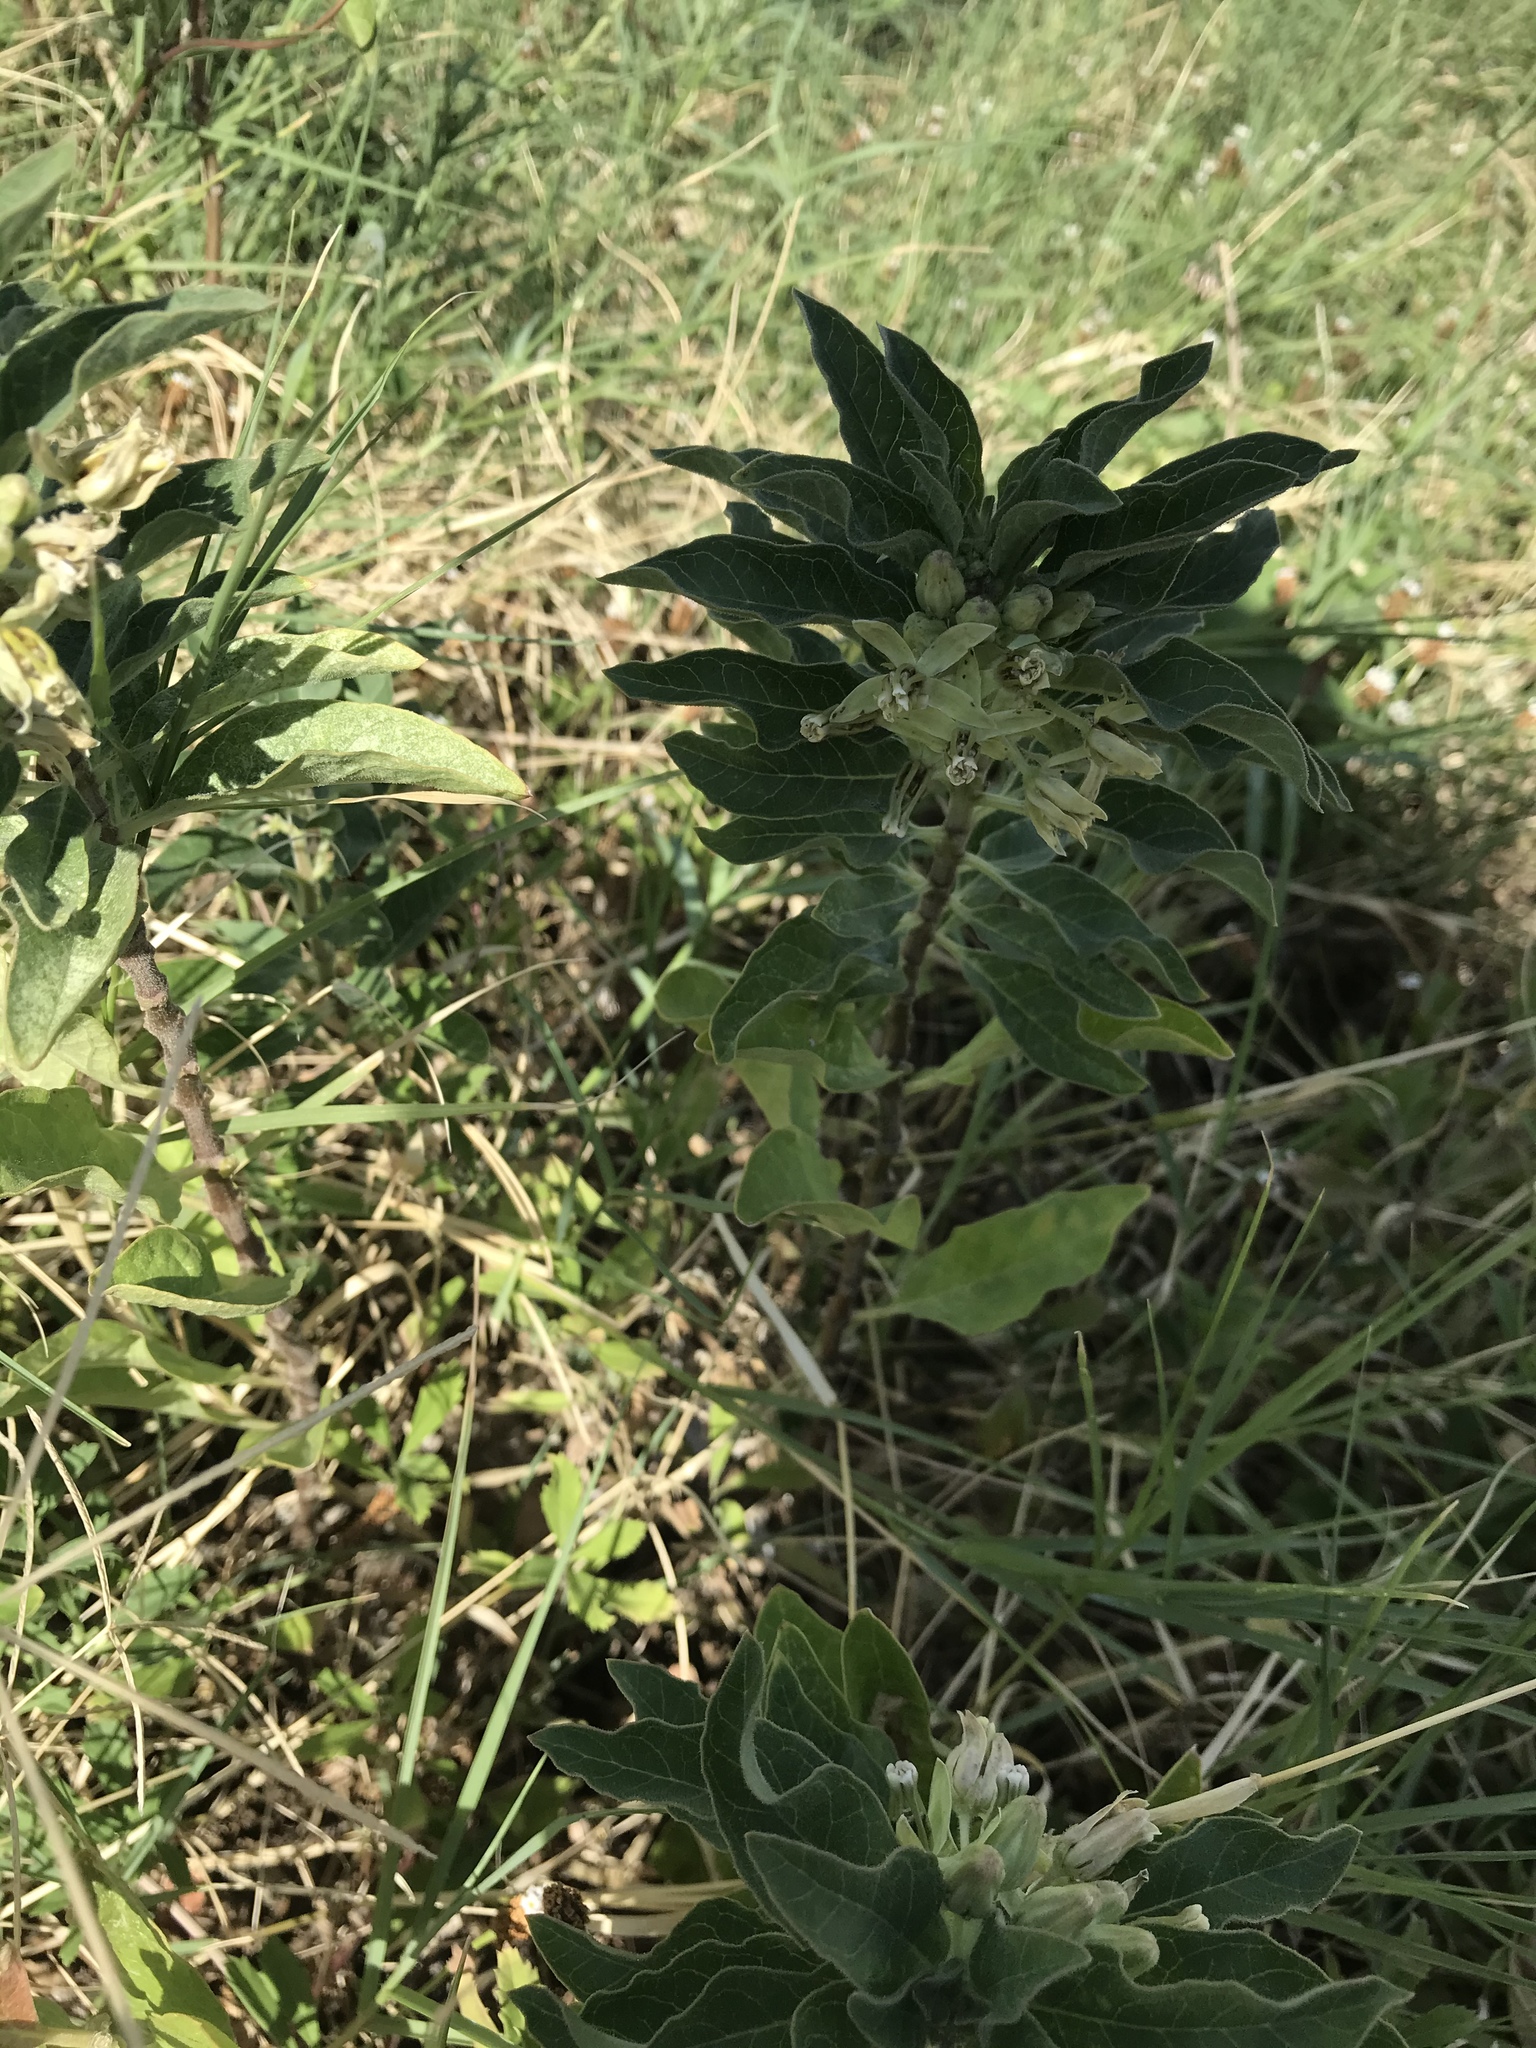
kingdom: Plantae
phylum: Tracheophyta
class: Magnoliopsida
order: Gentianales
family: Apocynaceae
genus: Asclepias
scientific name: Asclepias oenotheroides
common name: Zizotes milkweed
